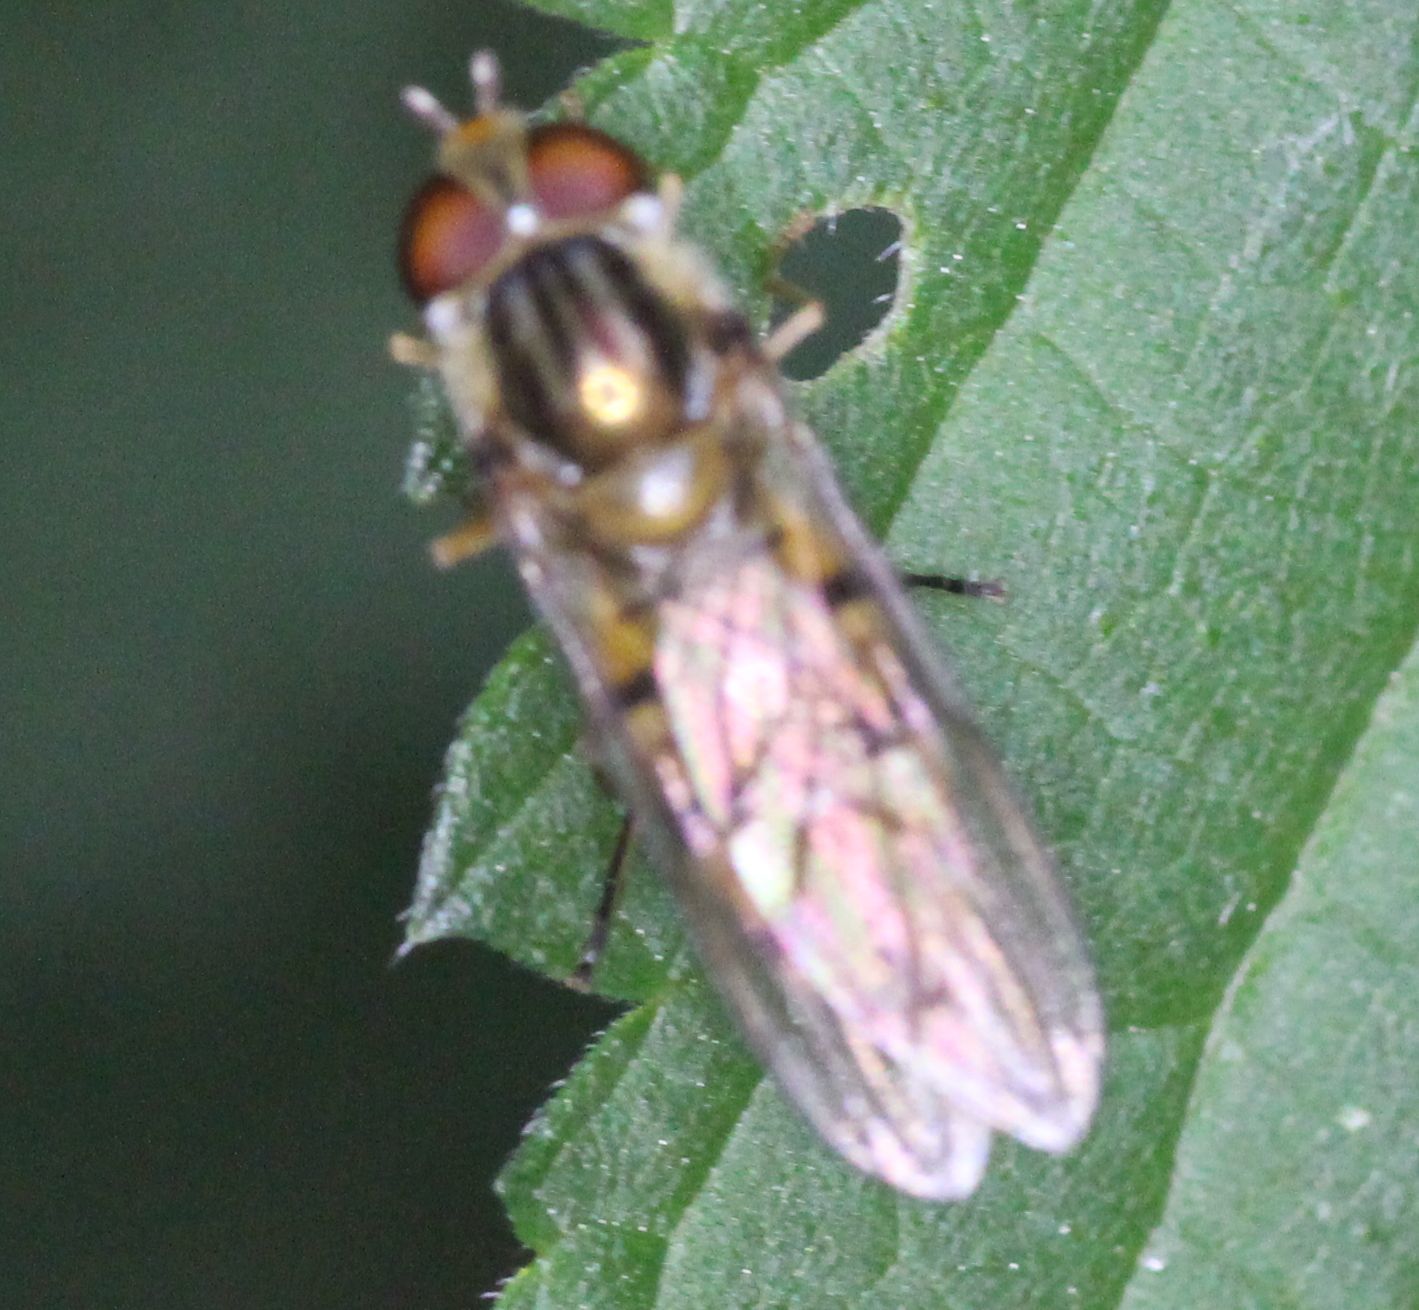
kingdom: Animalia
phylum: Arthropoda
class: Insecta
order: Diptera
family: Syrphidae
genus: Episyrphus
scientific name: Episyrphus balteatus
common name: Marmalade hoverfly
